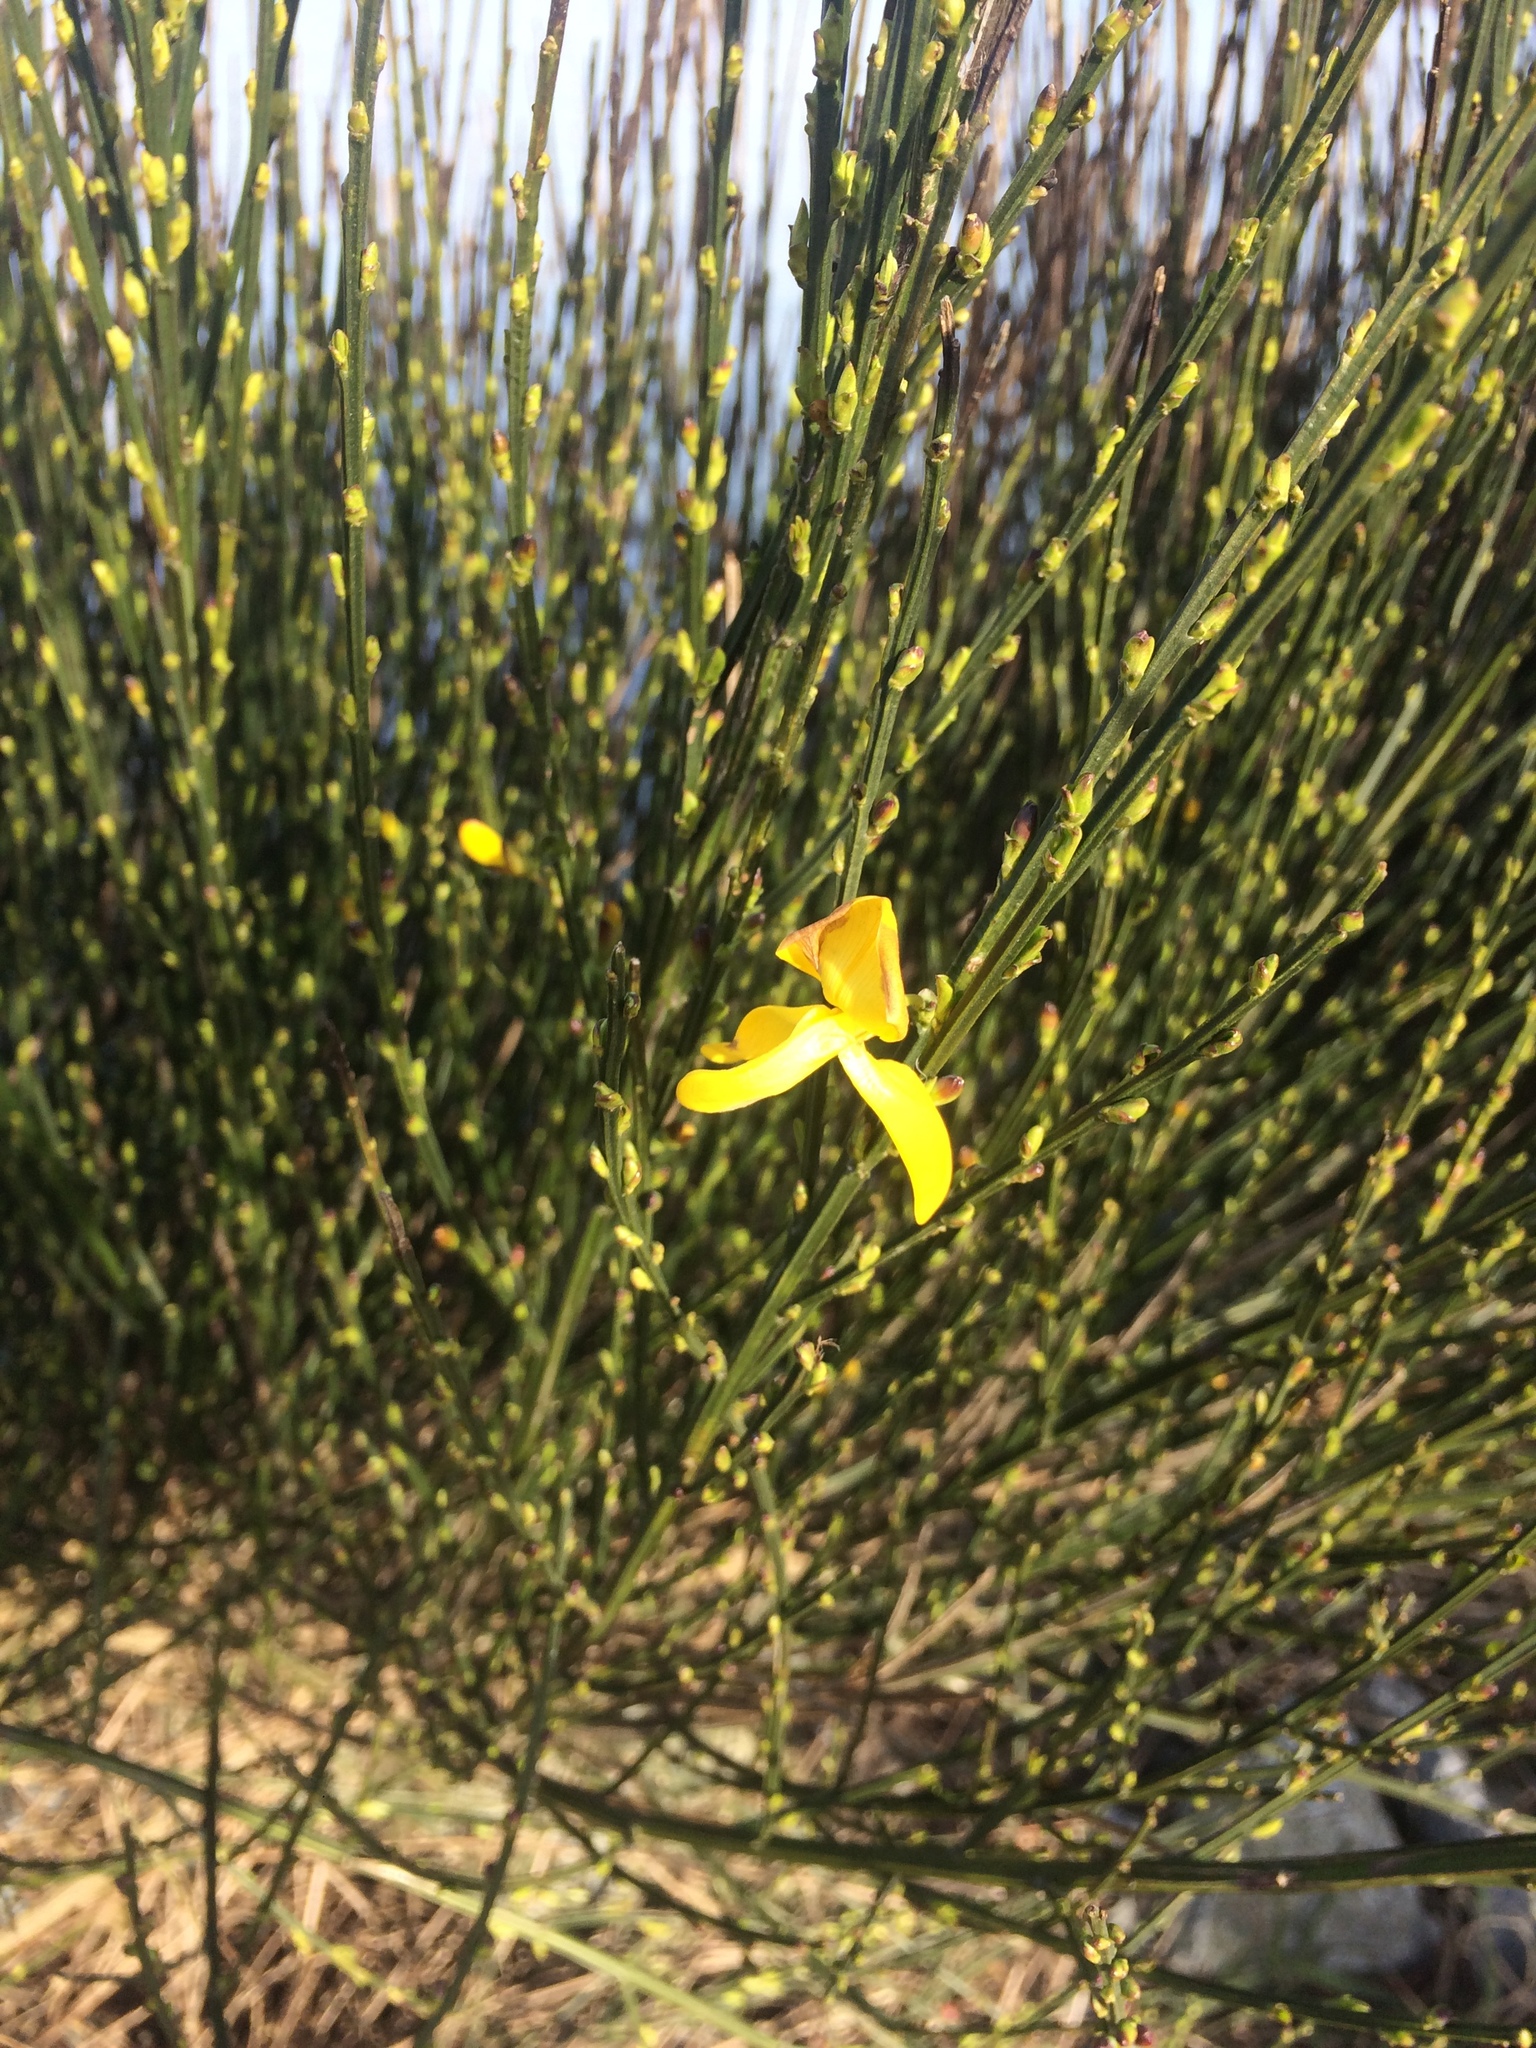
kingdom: Plantae
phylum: Tracheophyta
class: Magnoliopsida
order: Fabales
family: Fabaceae
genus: Cytisus
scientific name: Cytisus scoparius
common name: Scotch broom
